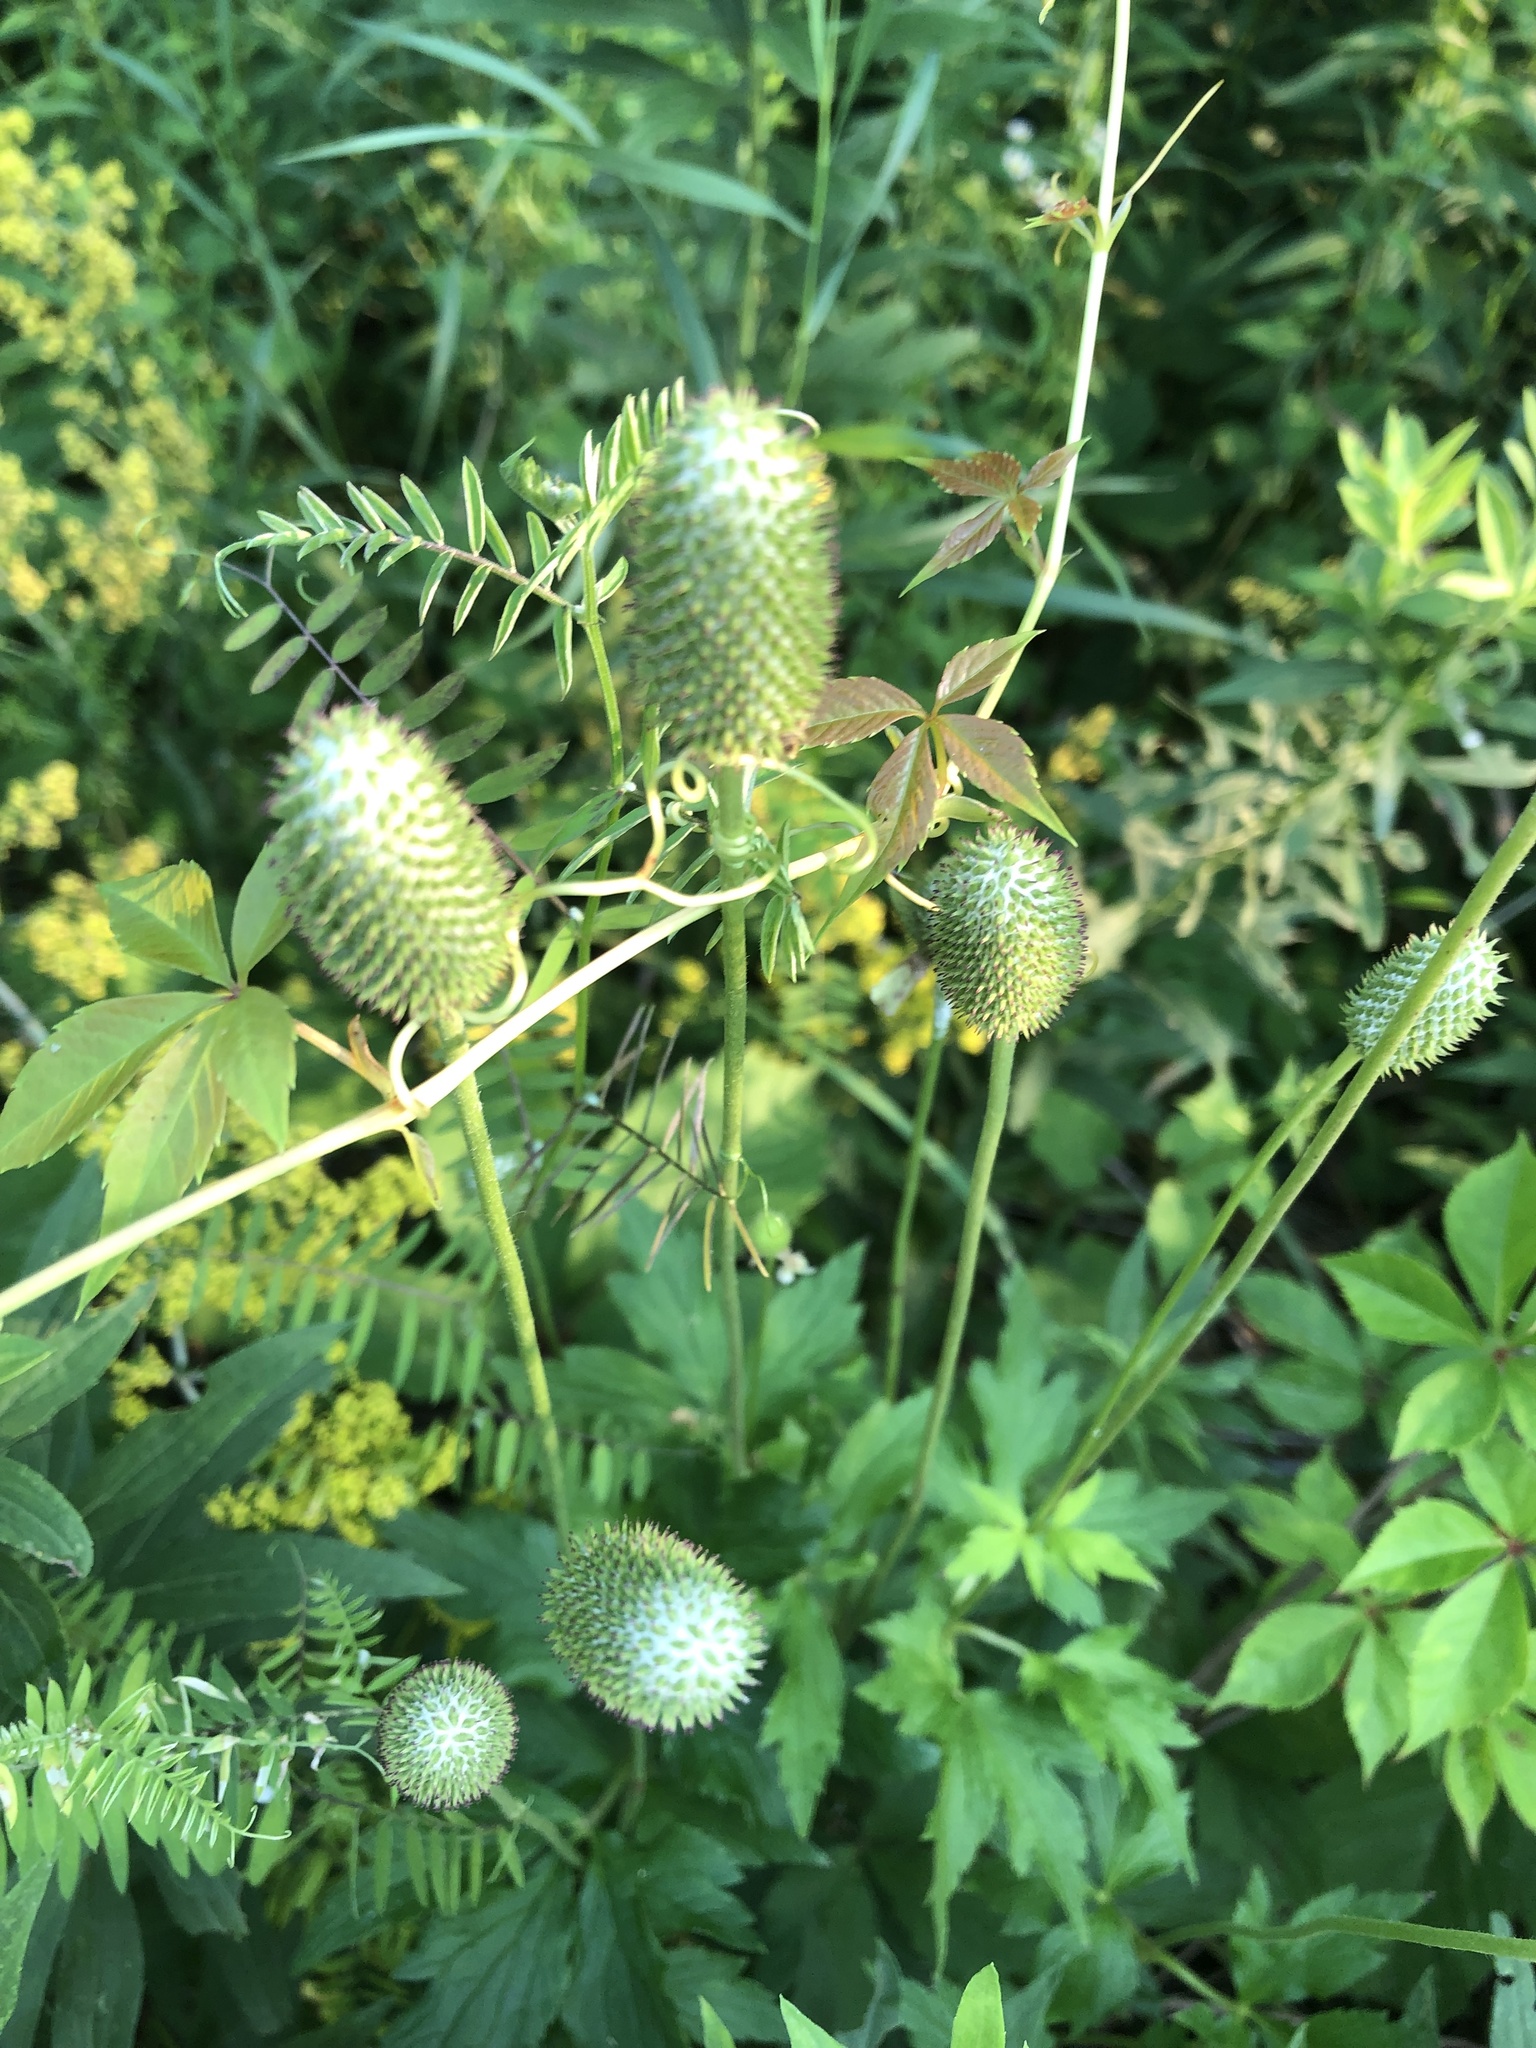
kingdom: Plantae
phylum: Tracheophyta
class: Magnoliopsida
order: Ranunculales
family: Ranunculaceae
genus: Anemone
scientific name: Anemone virginiana
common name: Tall anemone
